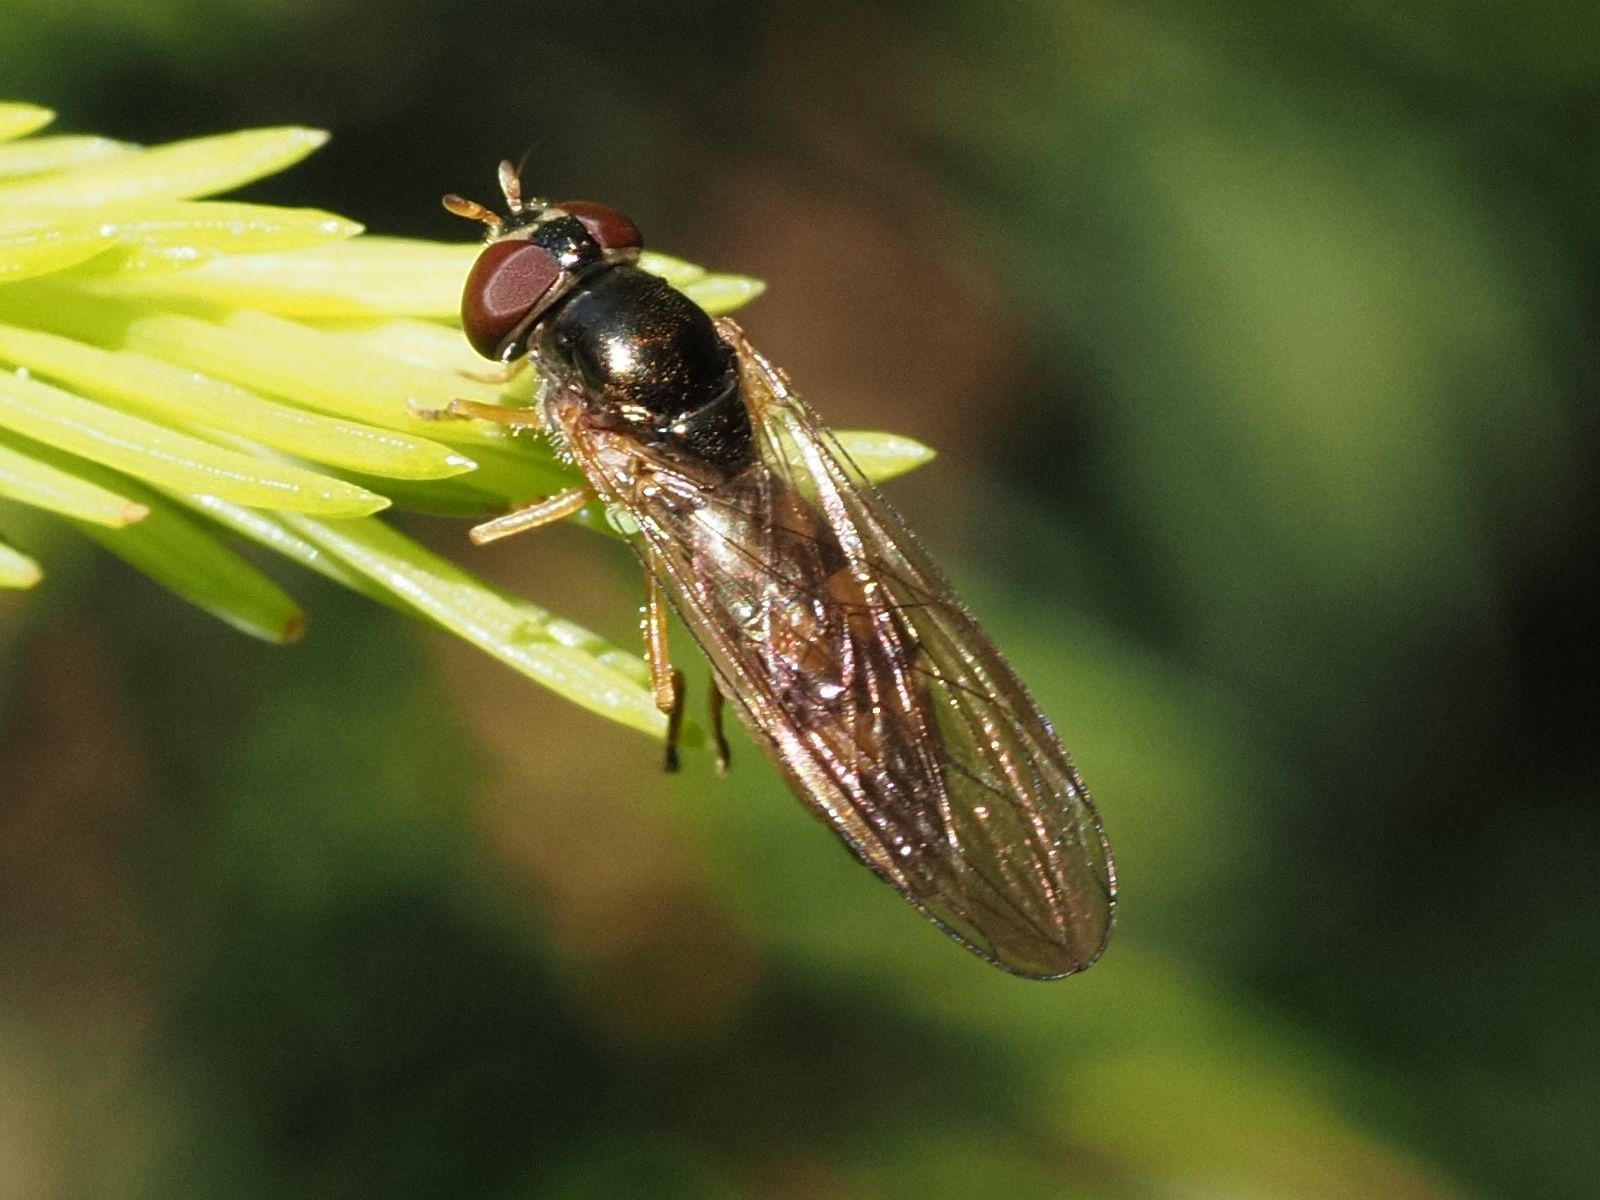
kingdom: Animalia
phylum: Arthropoda
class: Insecta
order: Diptera
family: Syrphidae
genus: Melanostoma
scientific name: Melanostoma scalare
